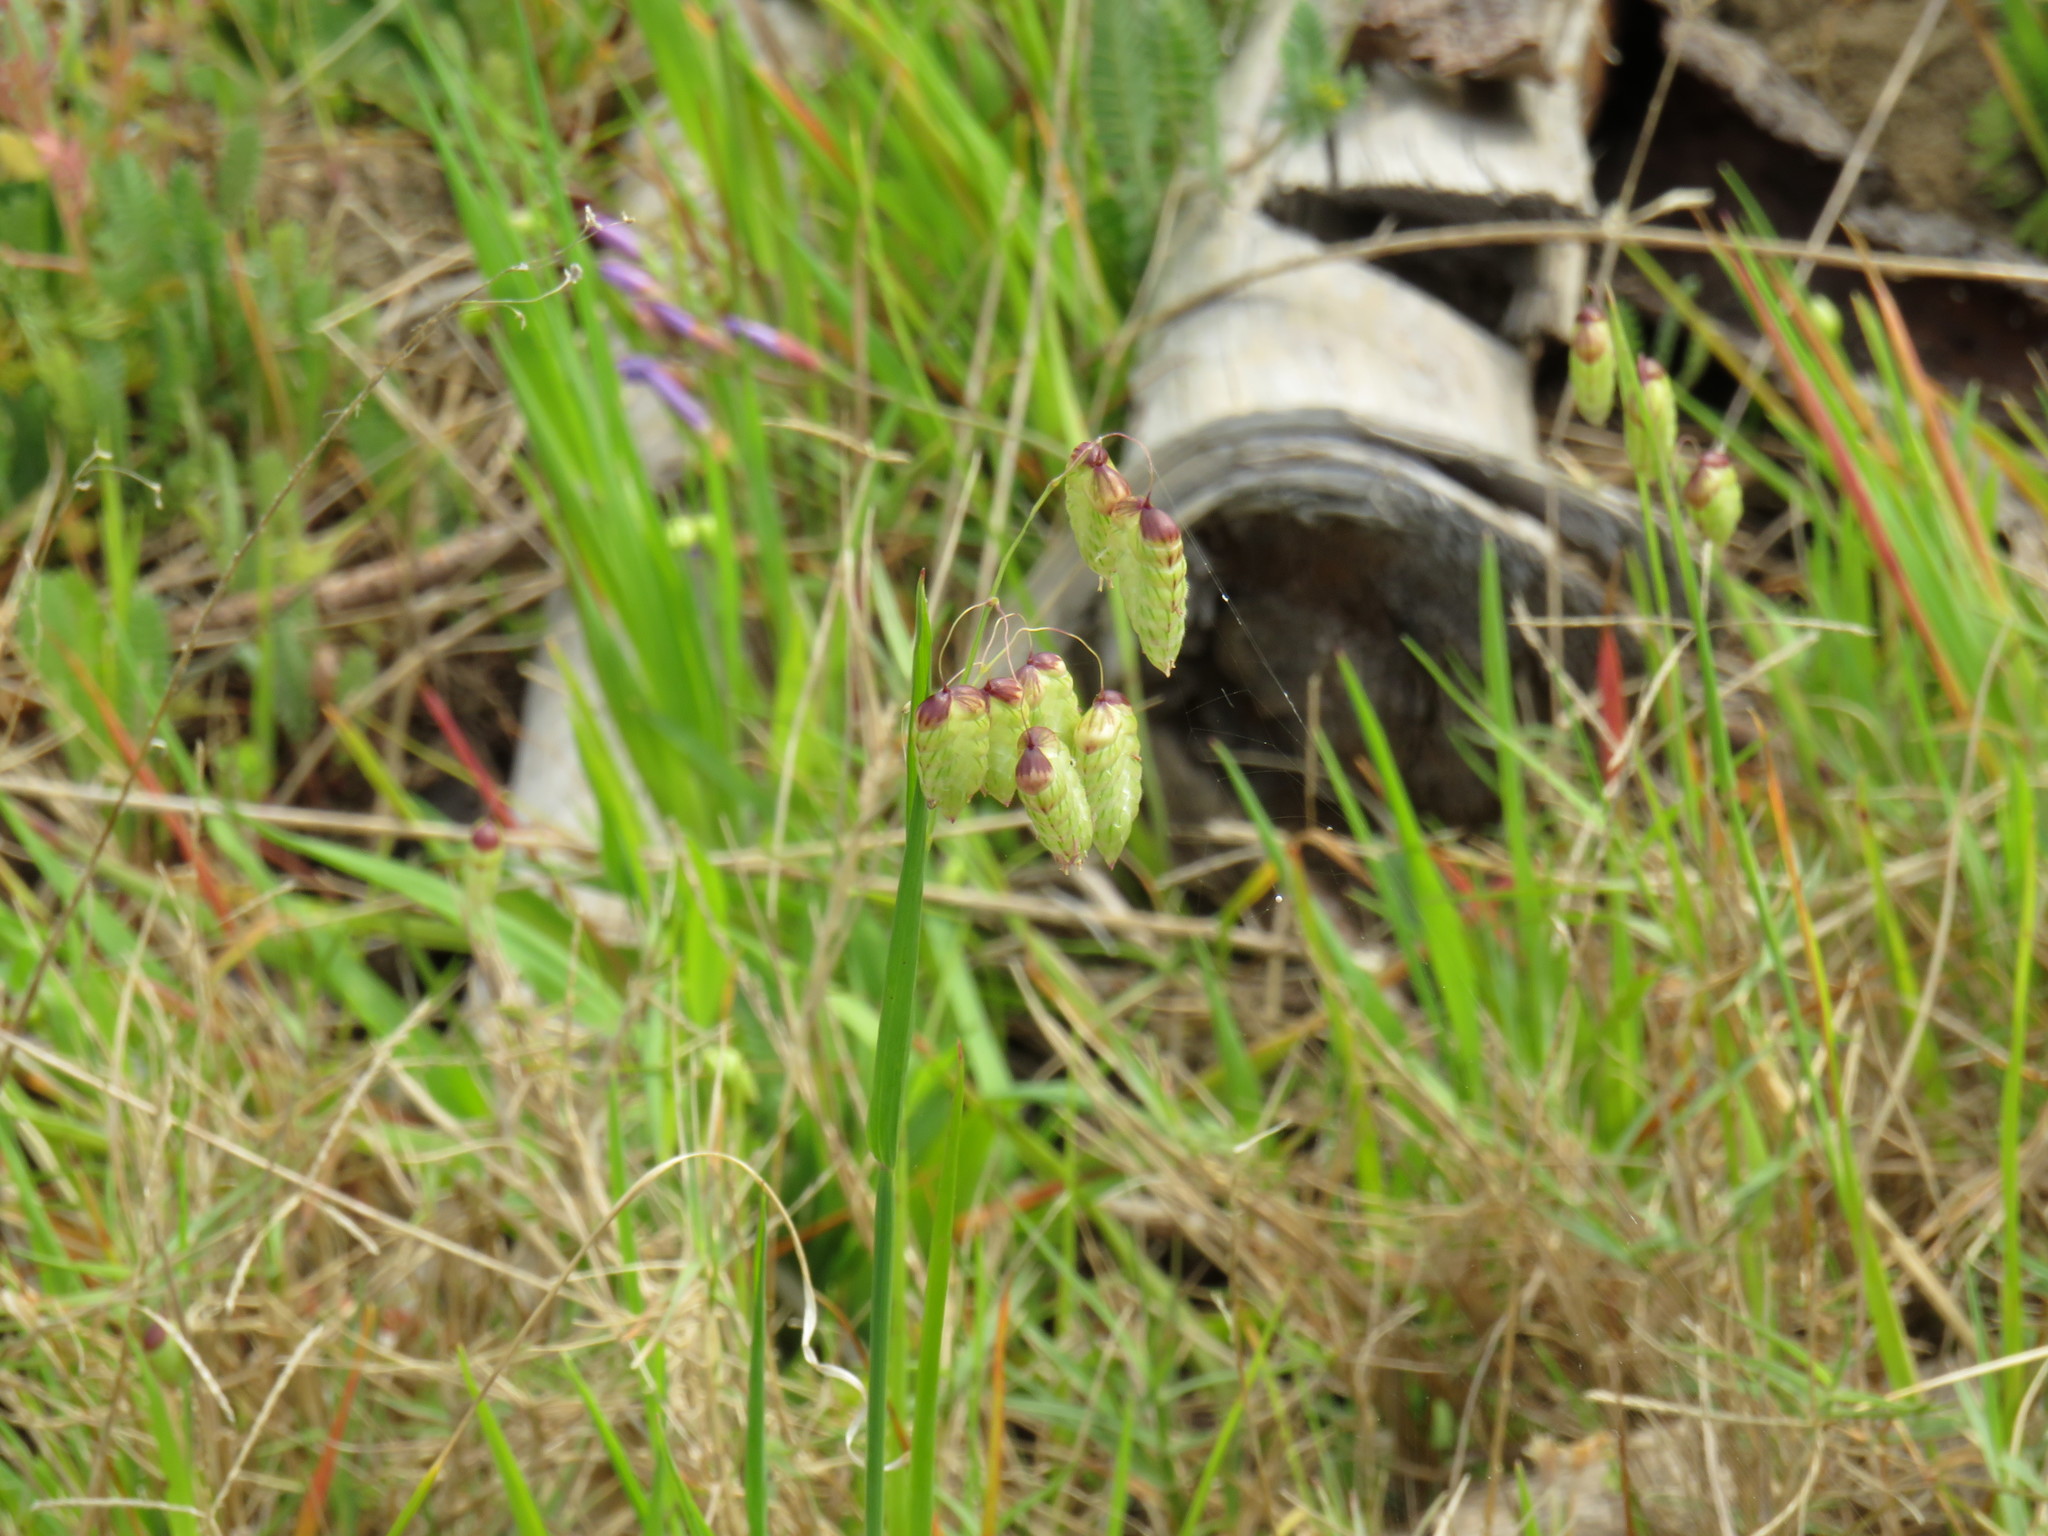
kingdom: Plantae
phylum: Tracheophyta
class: Liliopsida
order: Poales
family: Poaceae
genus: Briza
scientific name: Briza maxima
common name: Big quakinggrass
